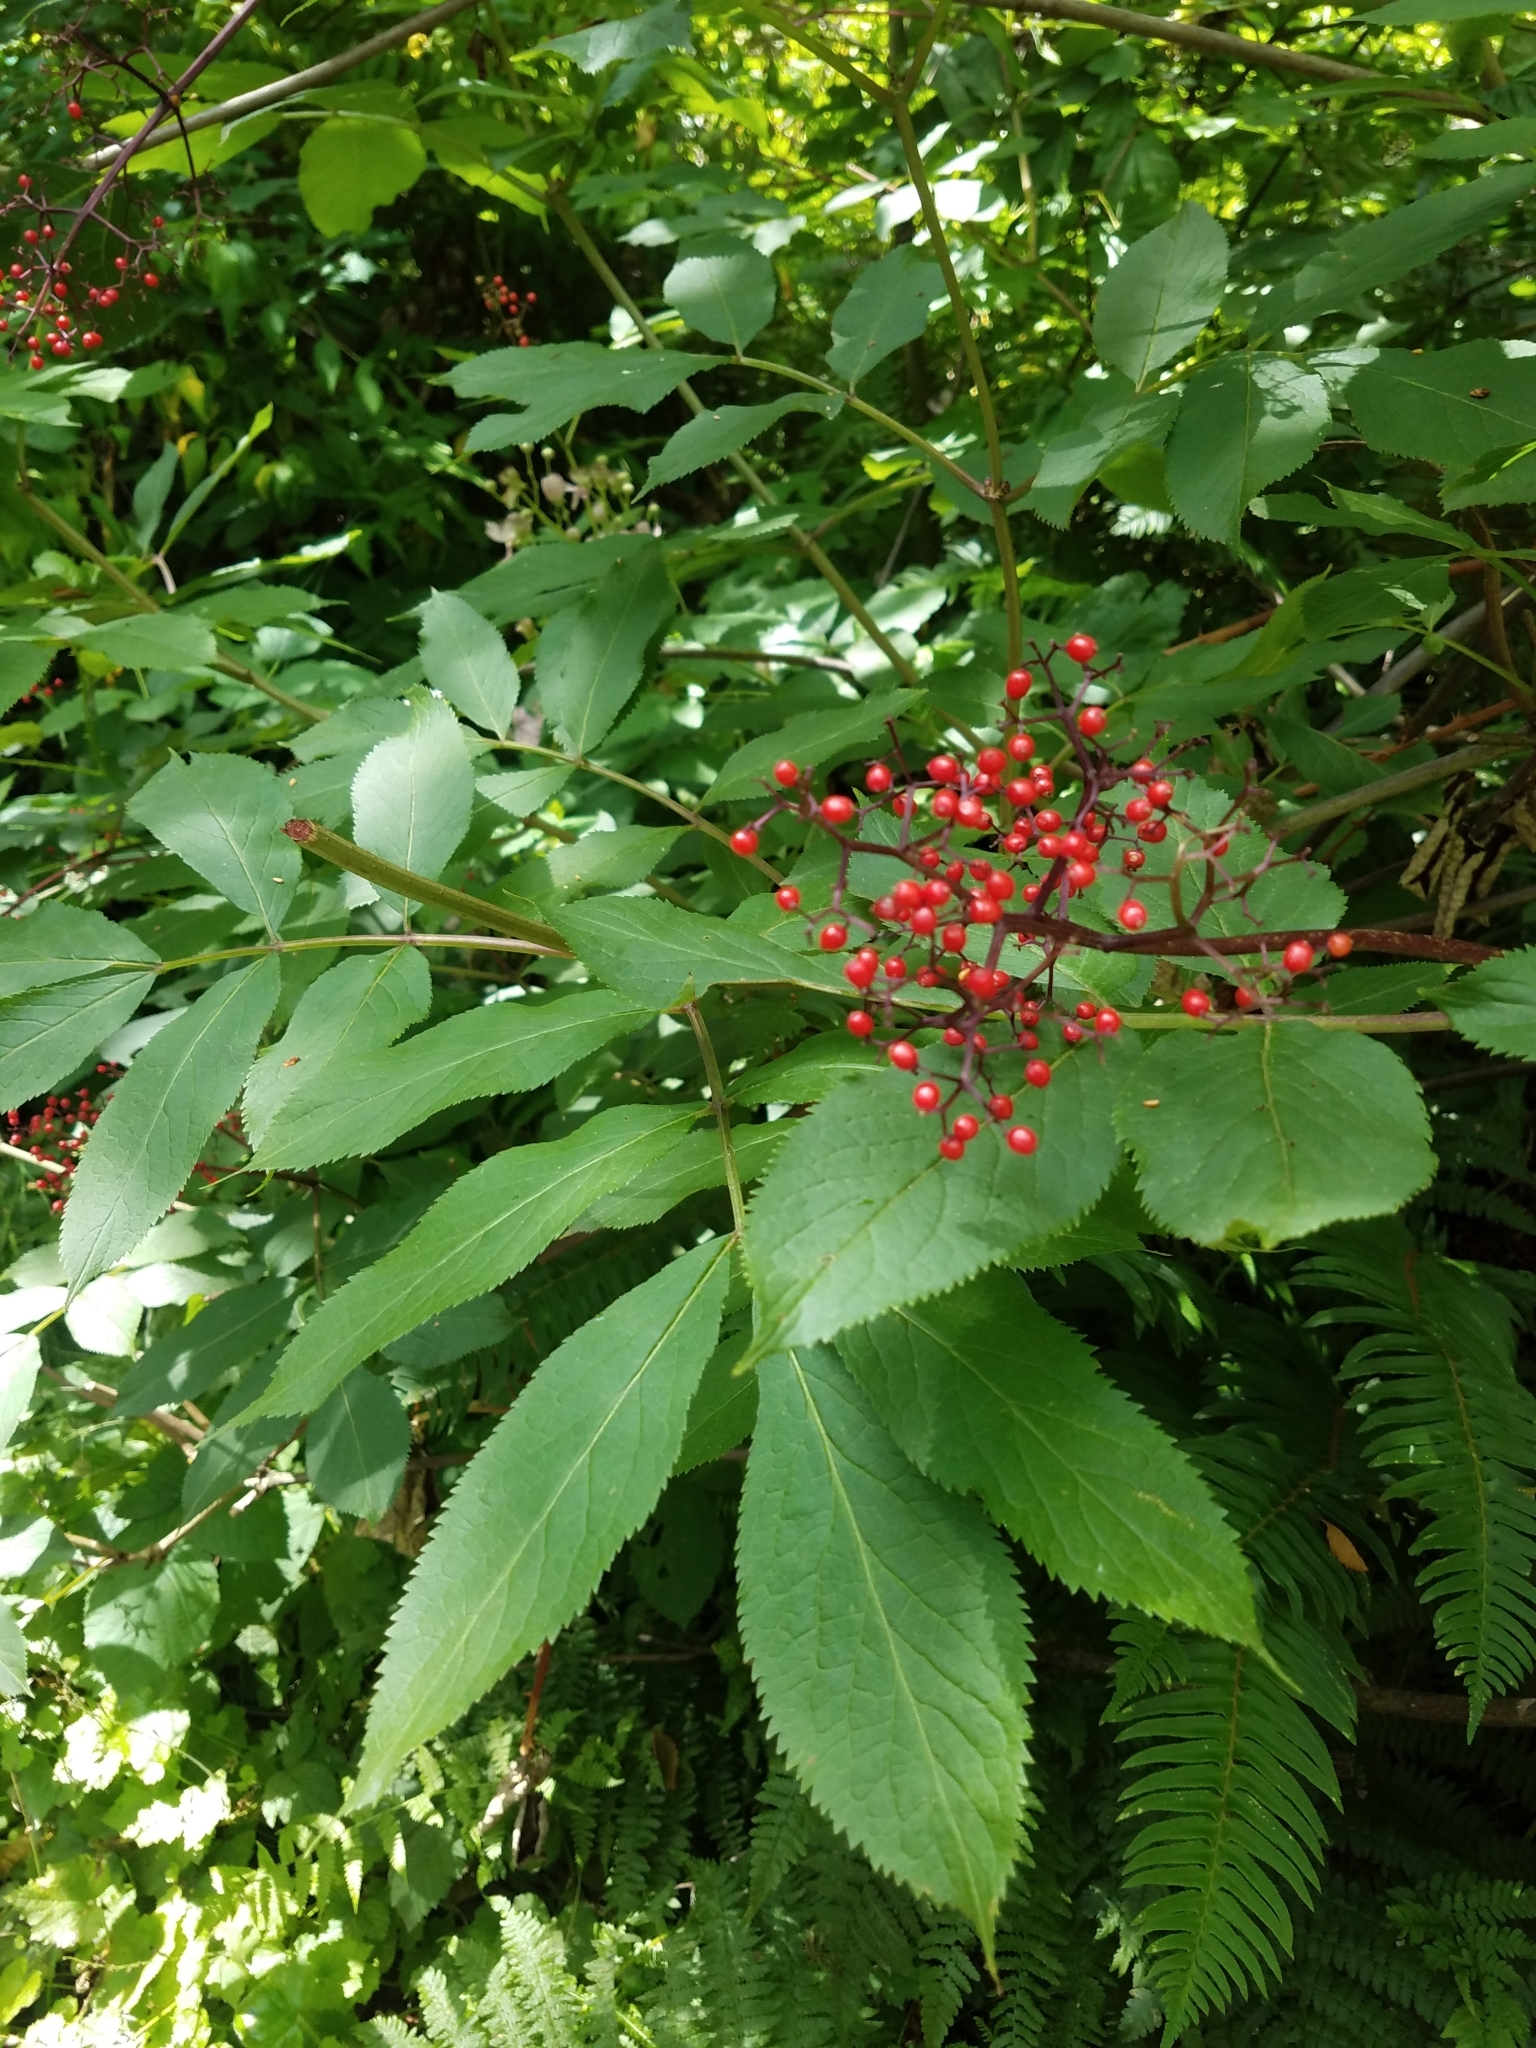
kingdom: Plantae
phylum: Tracheophyta
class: Magnoliopsida
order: Dipsacales
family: Viburnaceae
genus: Sambucus
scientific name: Sambucus racemosa
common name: Red-berried elder
